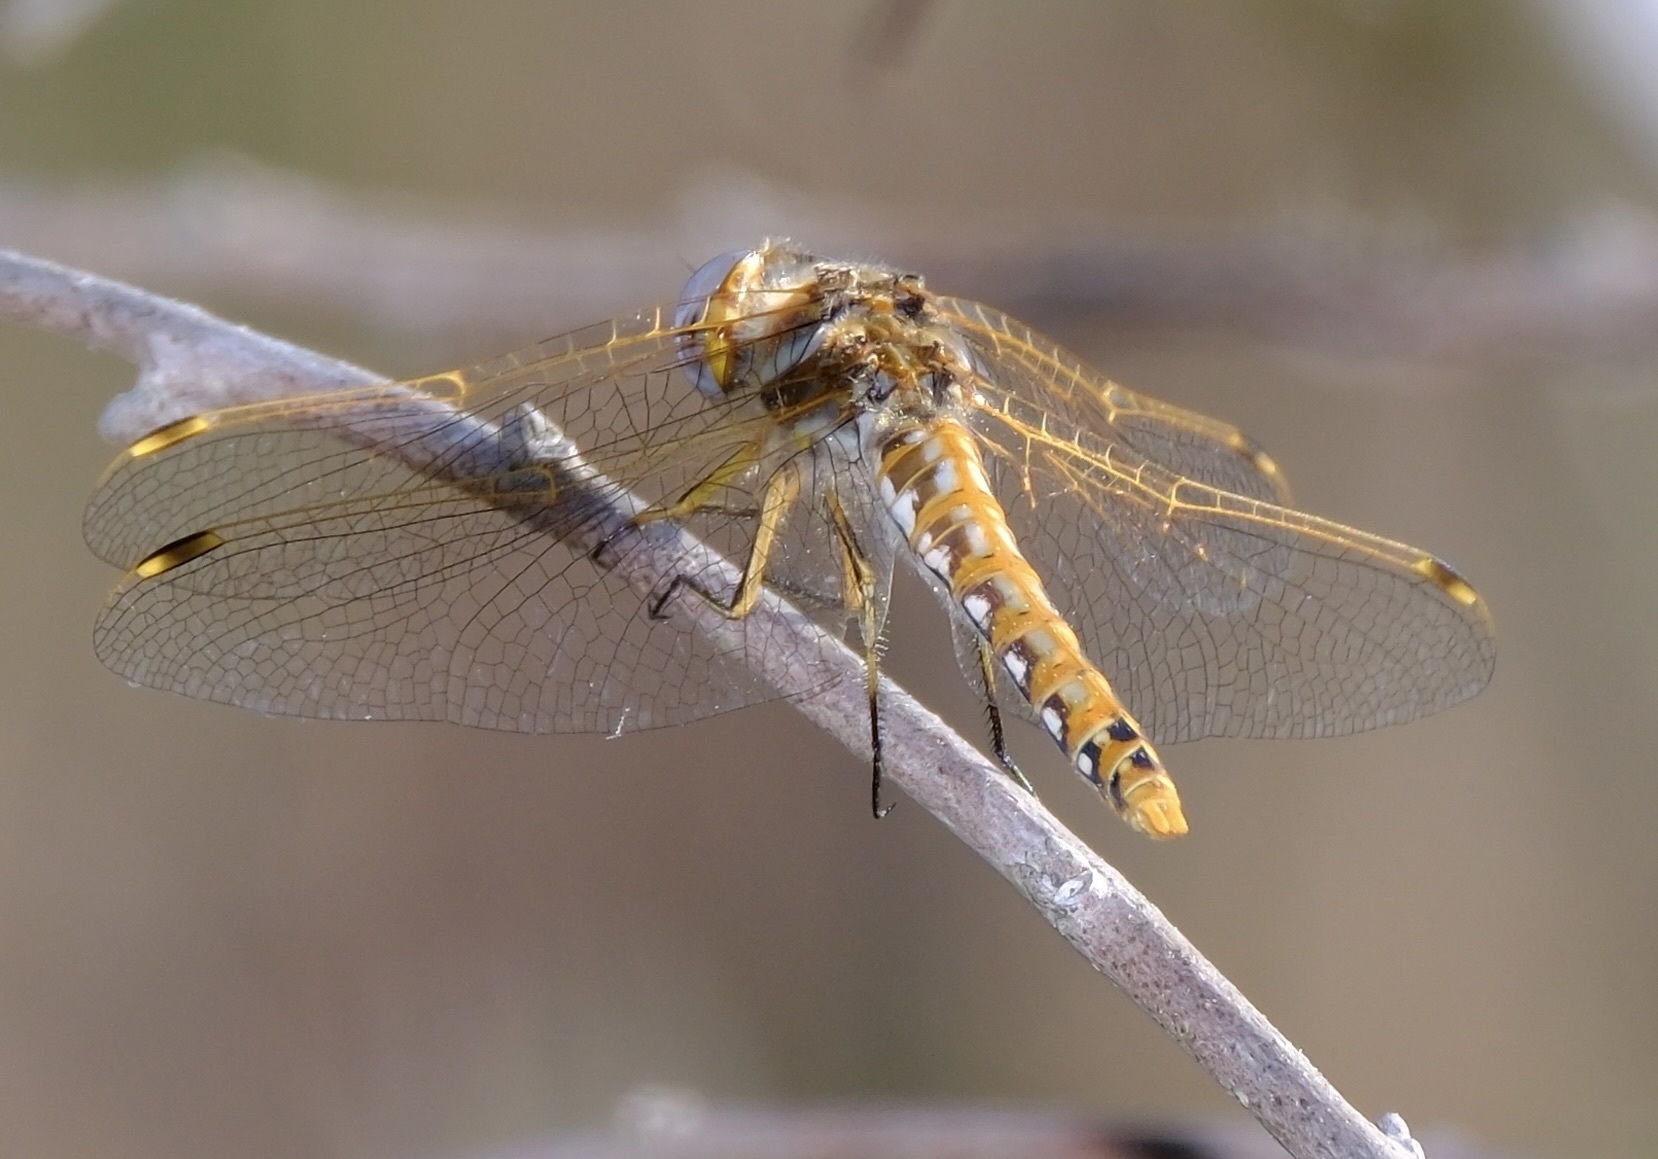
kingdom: Animalia
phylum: Arthropoda
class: Insecta
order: Odonata
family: Libellulidae
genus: Sympetrum
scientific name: Sympetrum corruptum
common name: Variegated meadowhawk
